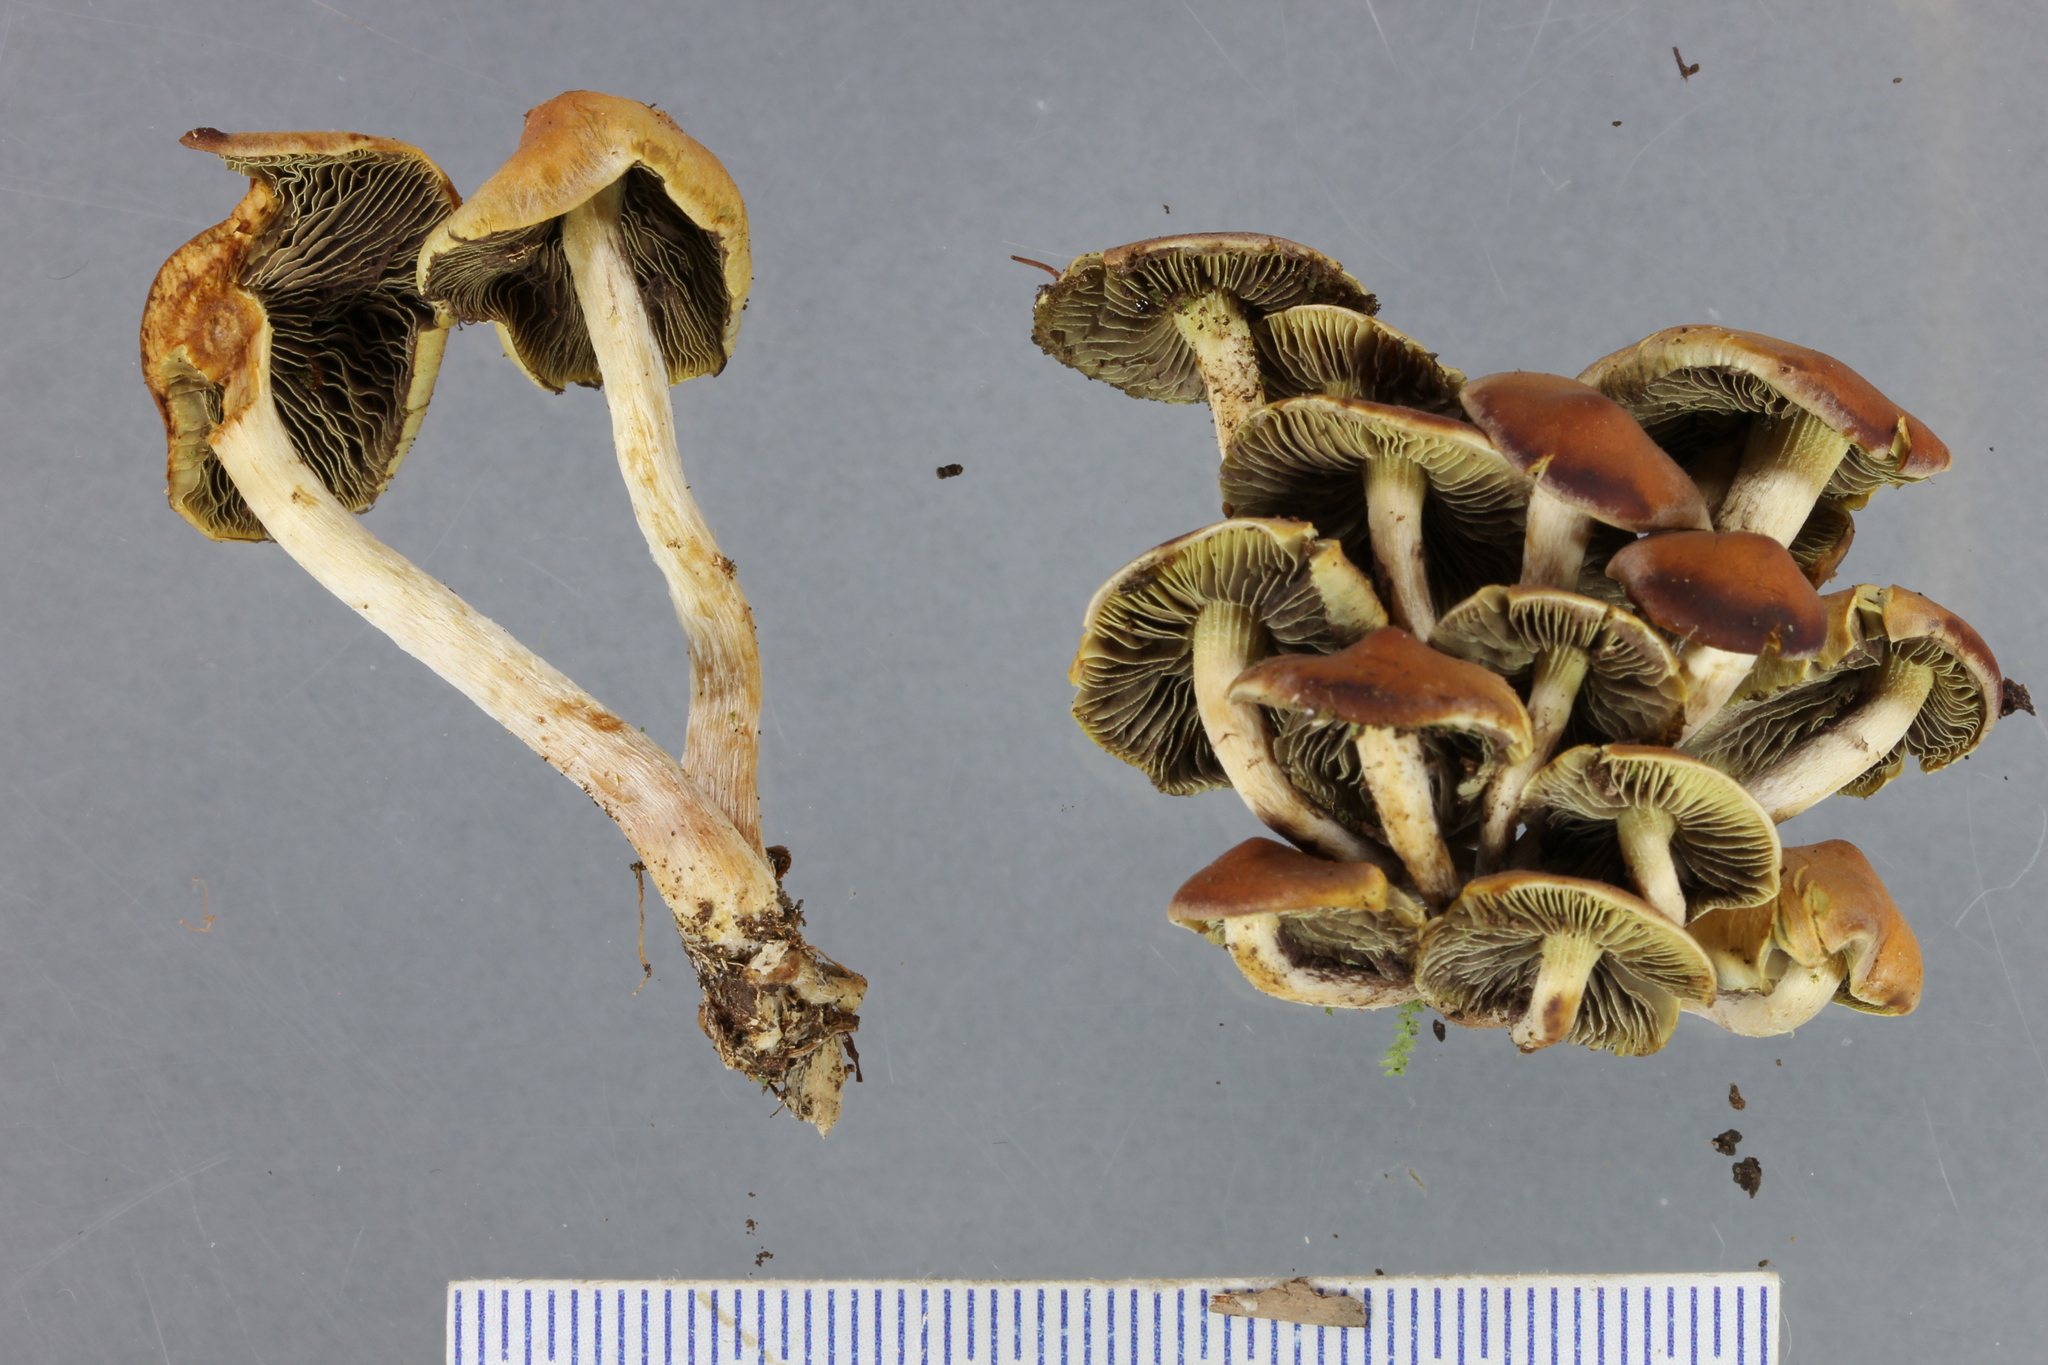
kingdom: Fungi
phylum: Basidiomycota
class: Agaricomycetes
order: Agaricales
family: Strophariaceae
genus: Hypholoma
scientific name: Hypholoma australianum
